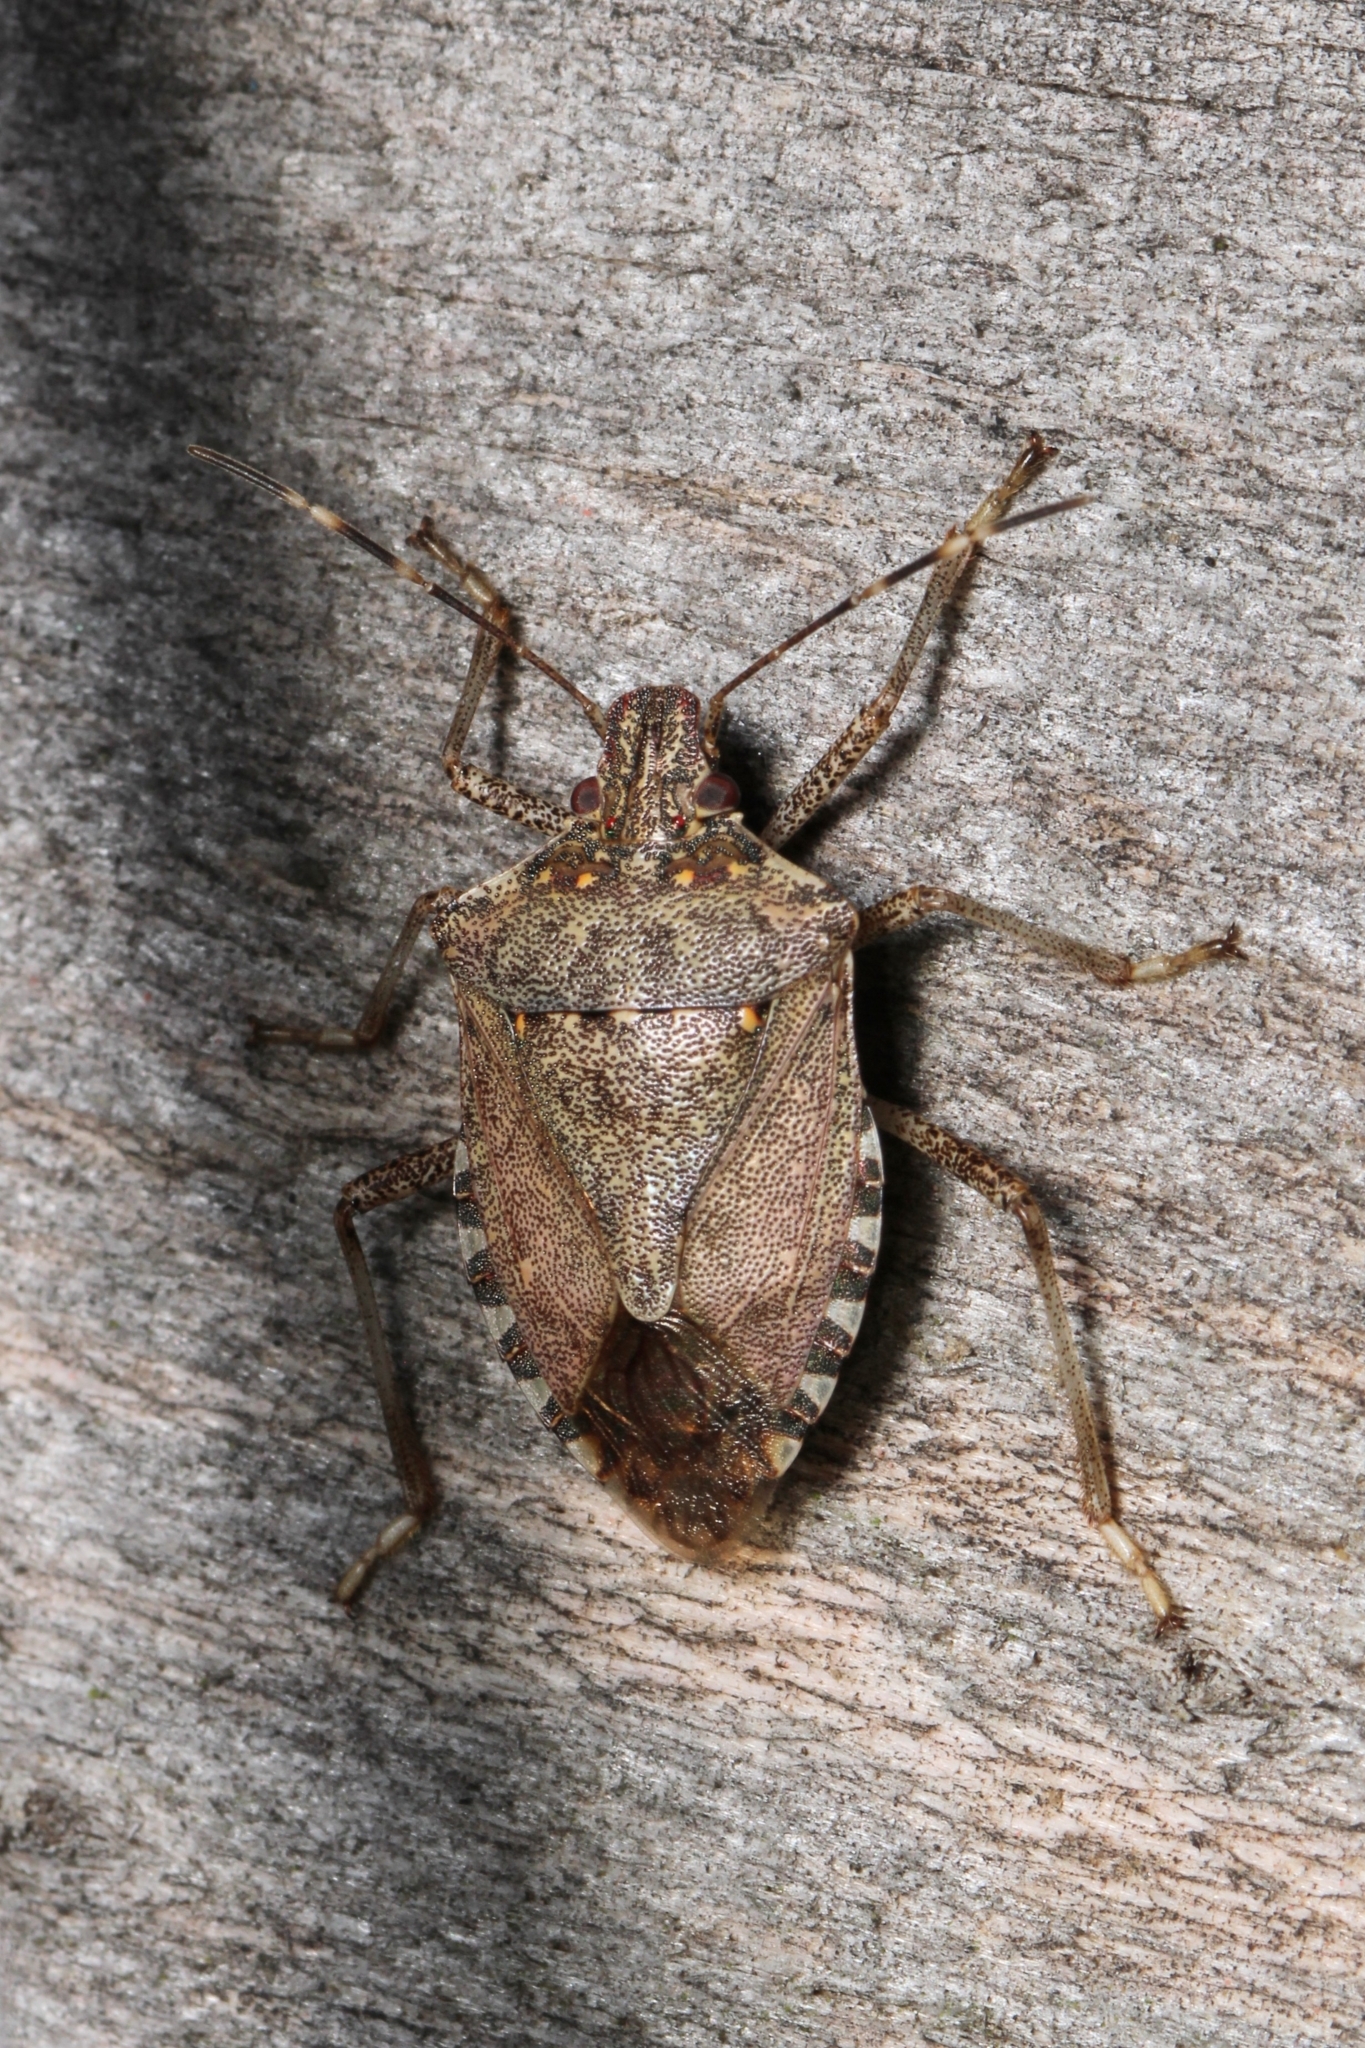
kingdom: Animalia
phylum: Arthropoda
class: Insecta
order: Hemiptera
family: Pentatomidae
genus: Halyomorpha
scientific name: Halyomorpha halys
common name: Brown marmorated stink bug
